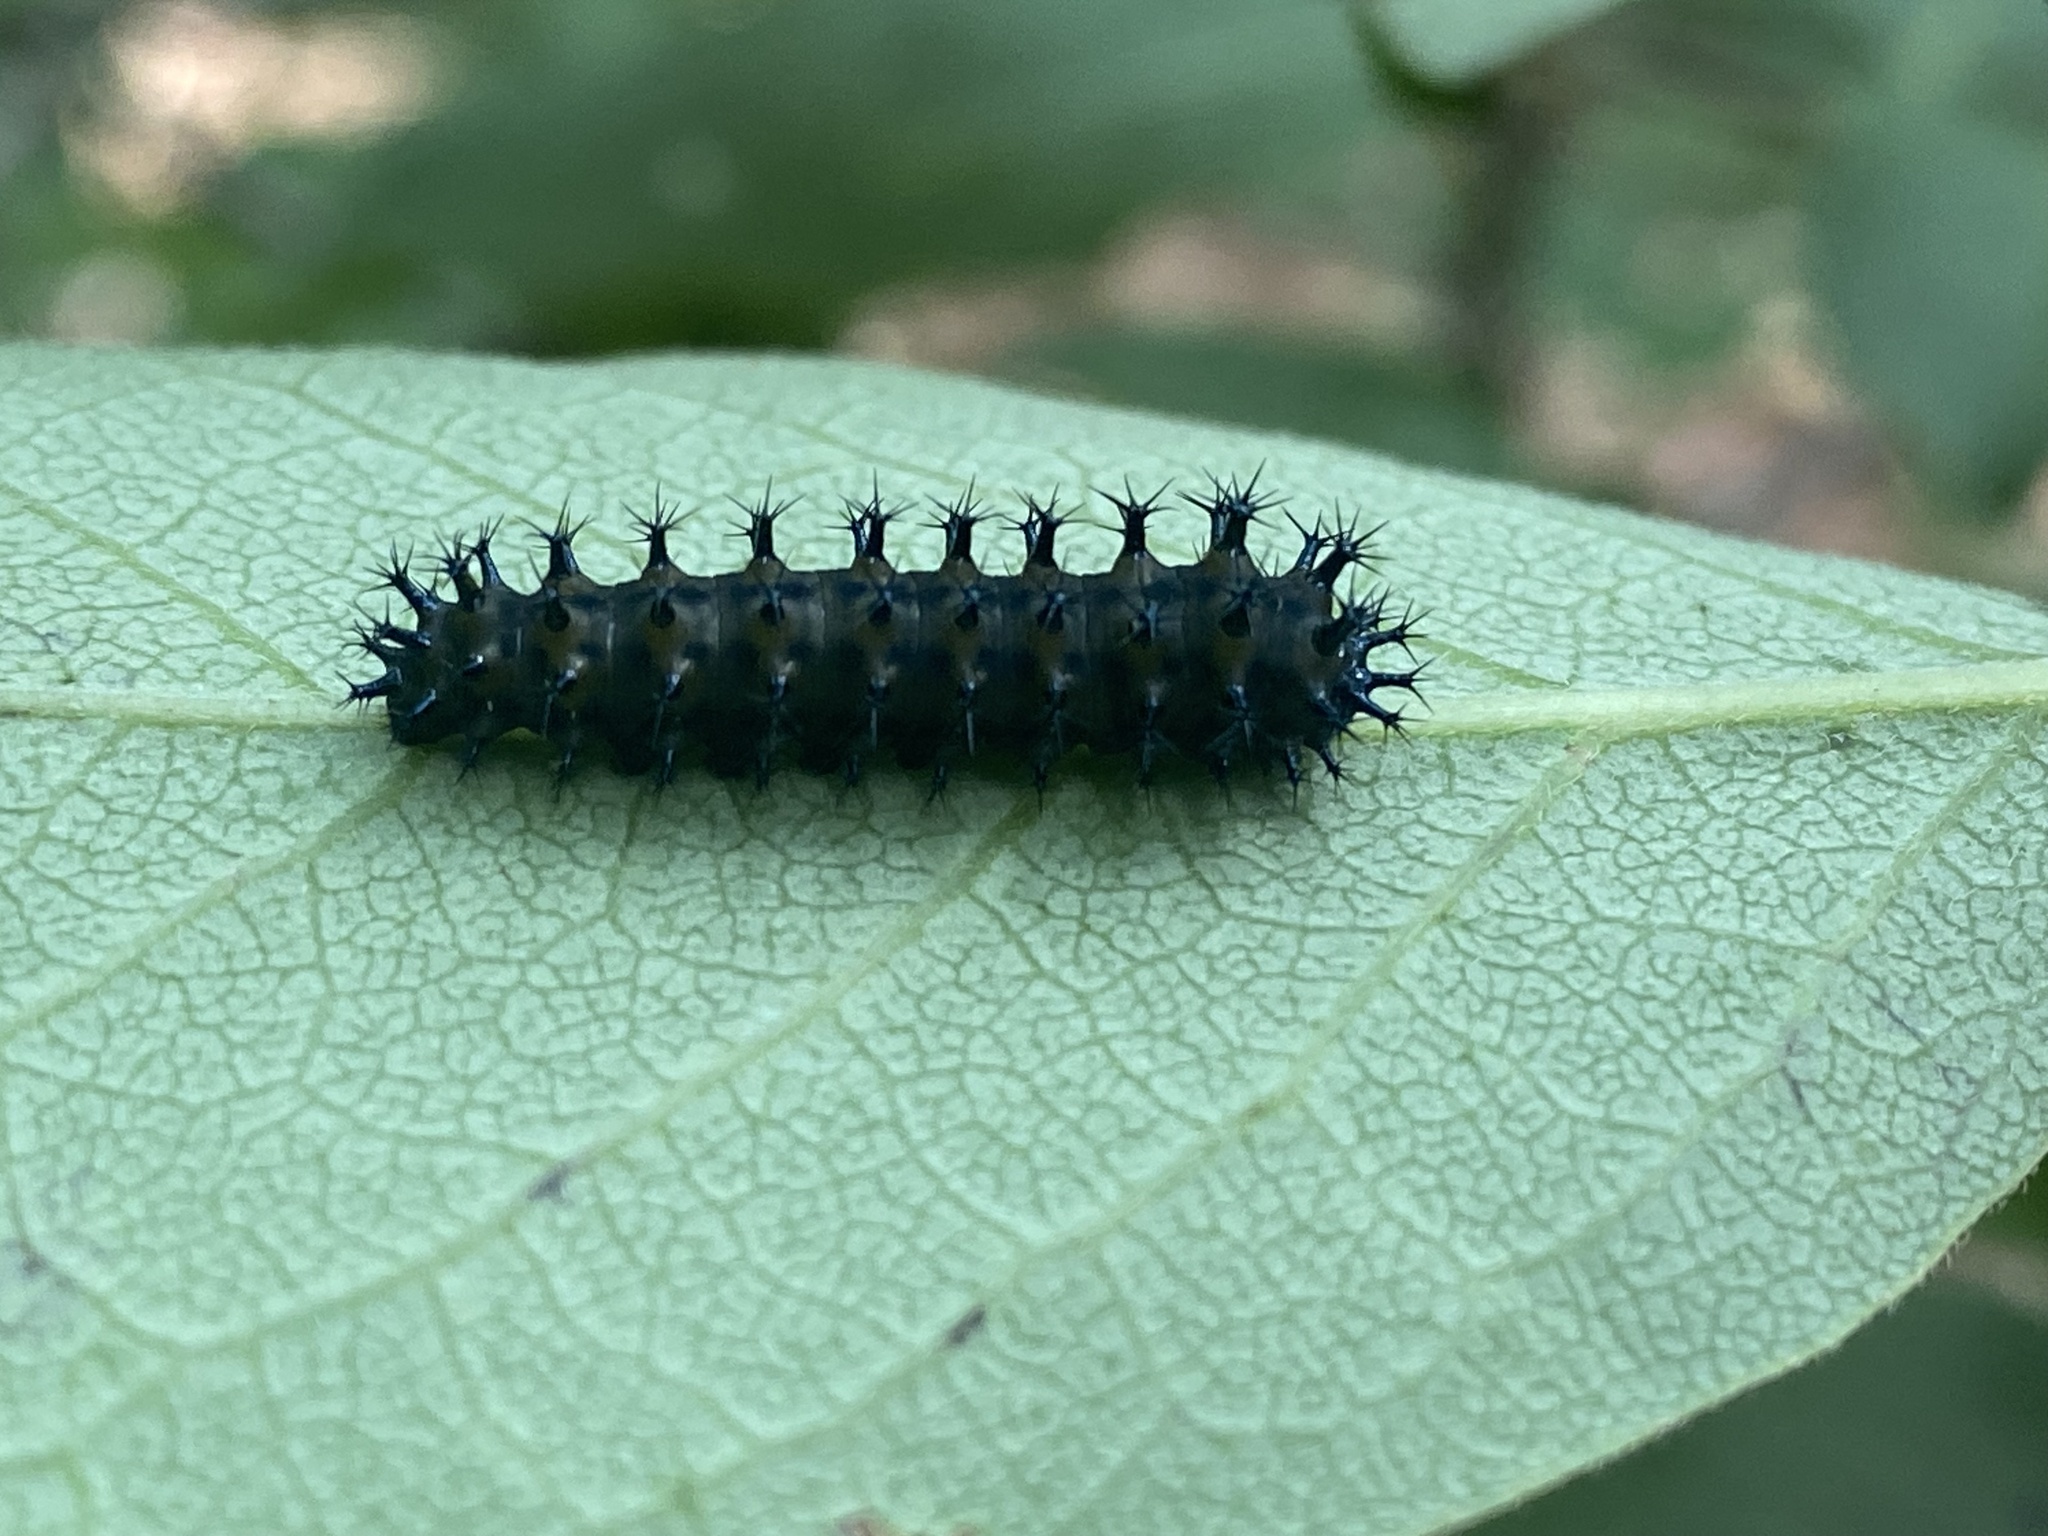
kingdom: Animalia
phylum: Arthropoda
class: Insecta
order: Lepidoptera
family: Saturniidae
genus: Hyalophora
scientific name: Hyalophora cecropia
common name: Cecropia silkmoth
